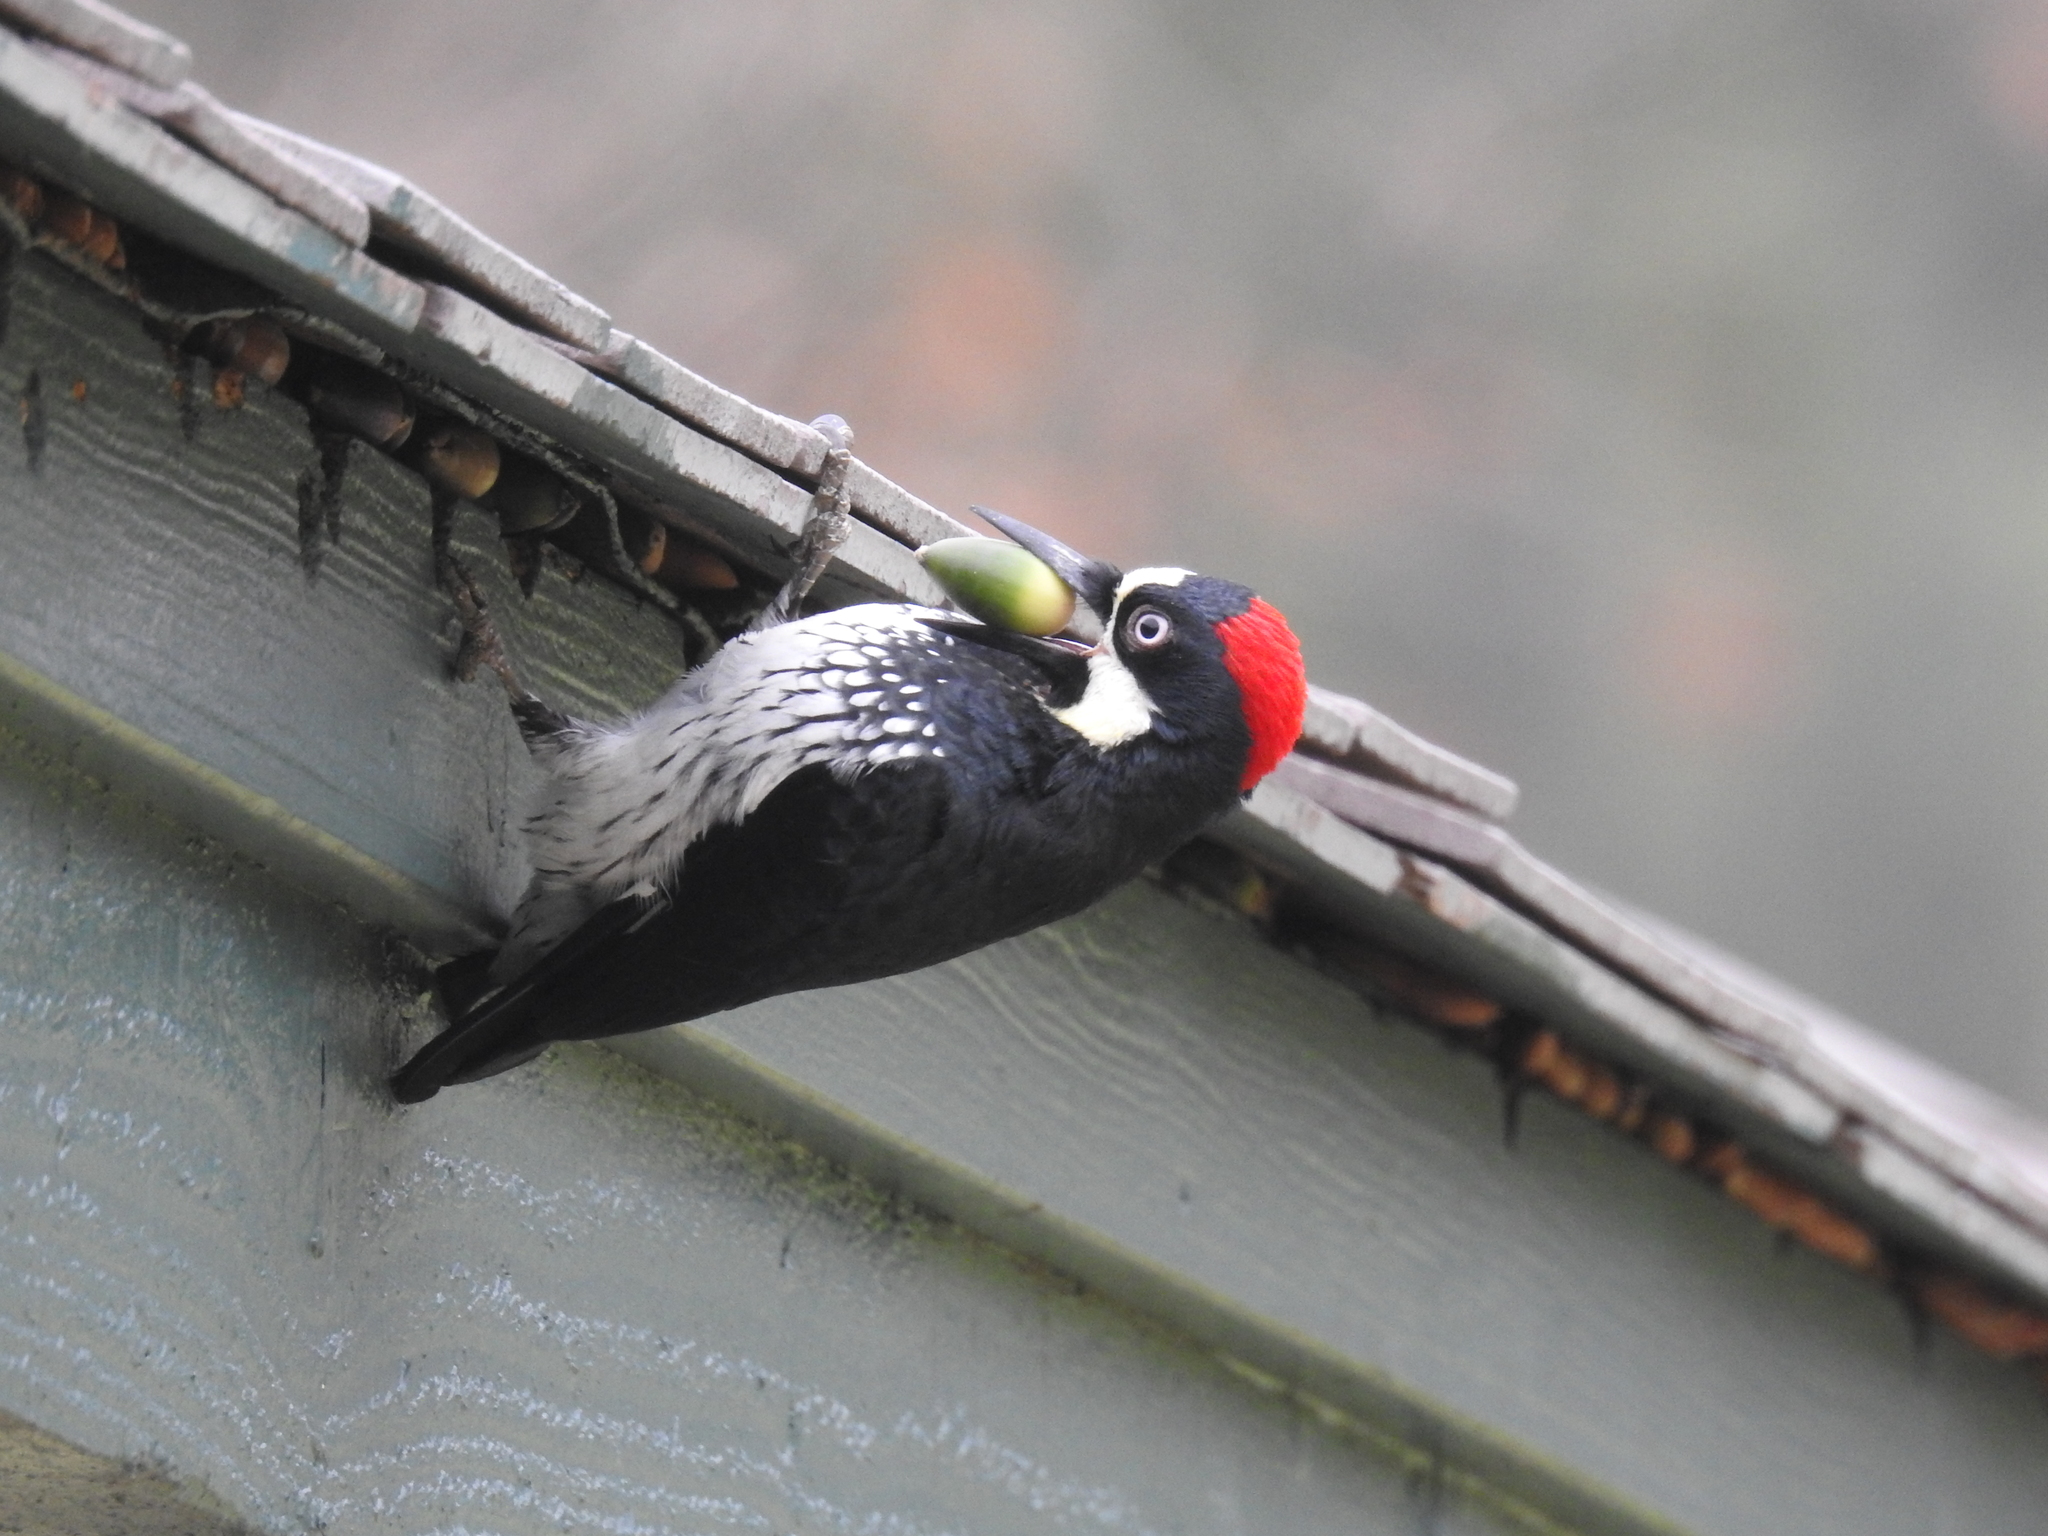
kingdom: Animalia
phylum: Chordata
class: Aves
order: Piciformes
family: Picidae
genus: Melanerpes
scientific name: Melanerpes formicivorus
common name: Acorn woodpecker
